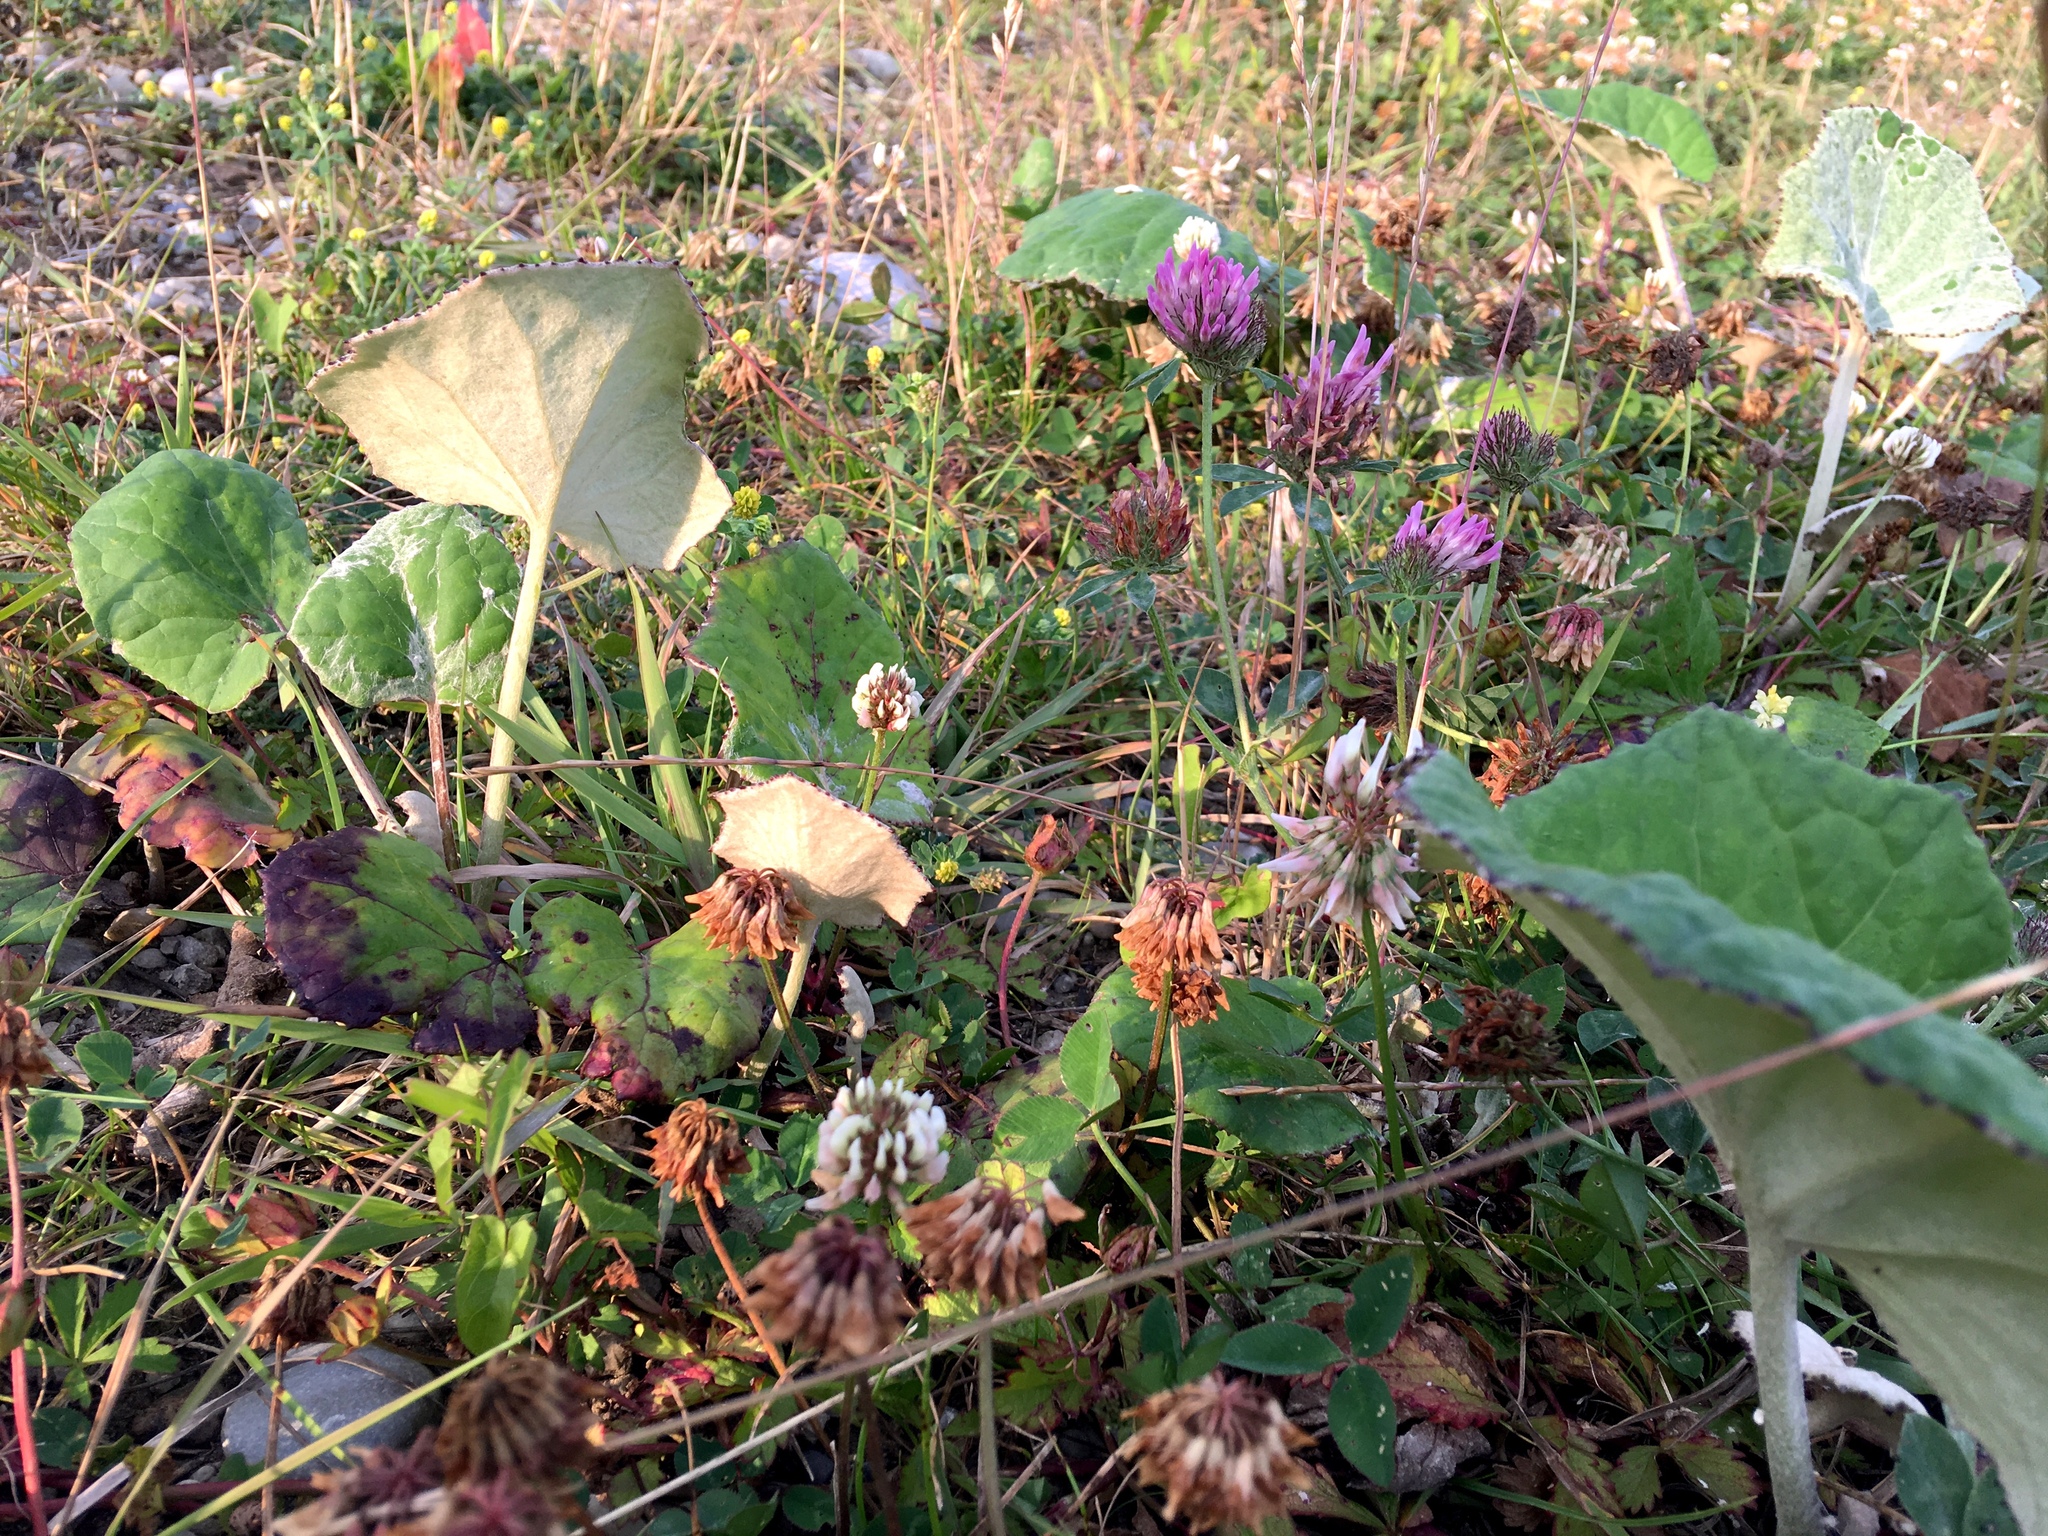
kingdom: Plantae
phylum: Tracheophyta
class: Magnoliopsida
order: Asterales
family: Asteraceae
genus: Tussilago
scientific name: Tussilago farfara
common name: Coltsfoot
